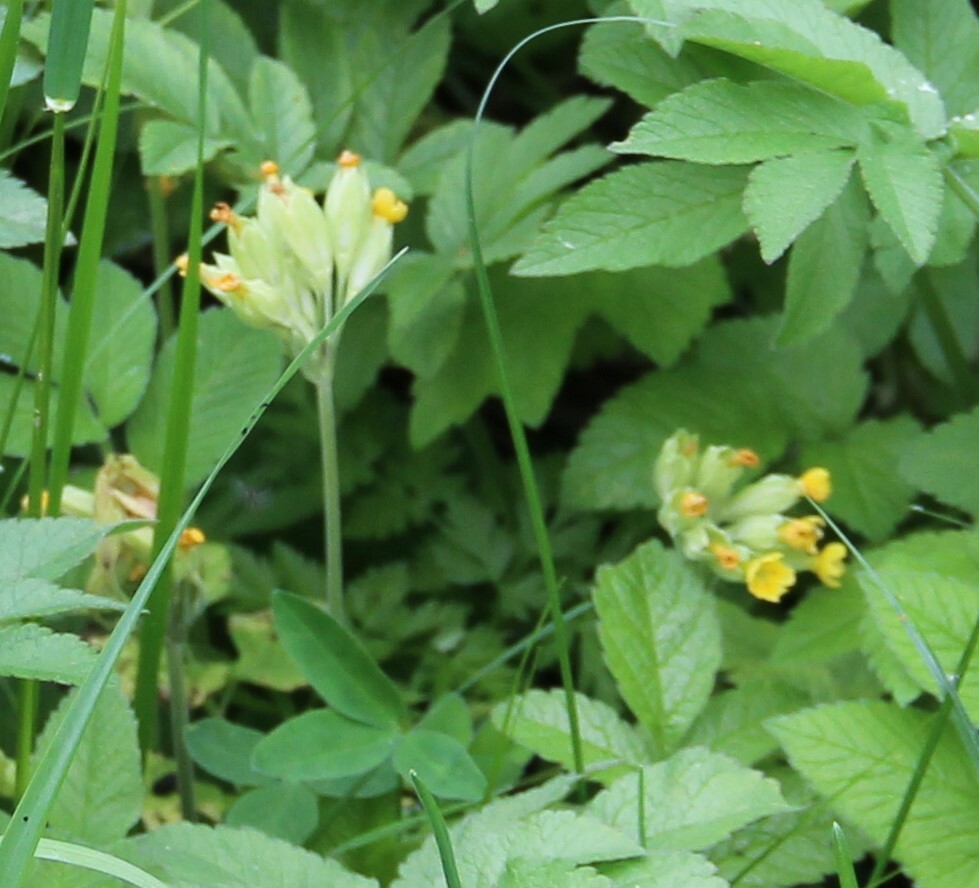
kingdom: Plantae
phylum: Tracheophyta
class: Magnoliopsida
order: Ericales
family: Primulaceae
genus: Primula
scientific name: Primula veris
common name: Cowslip
